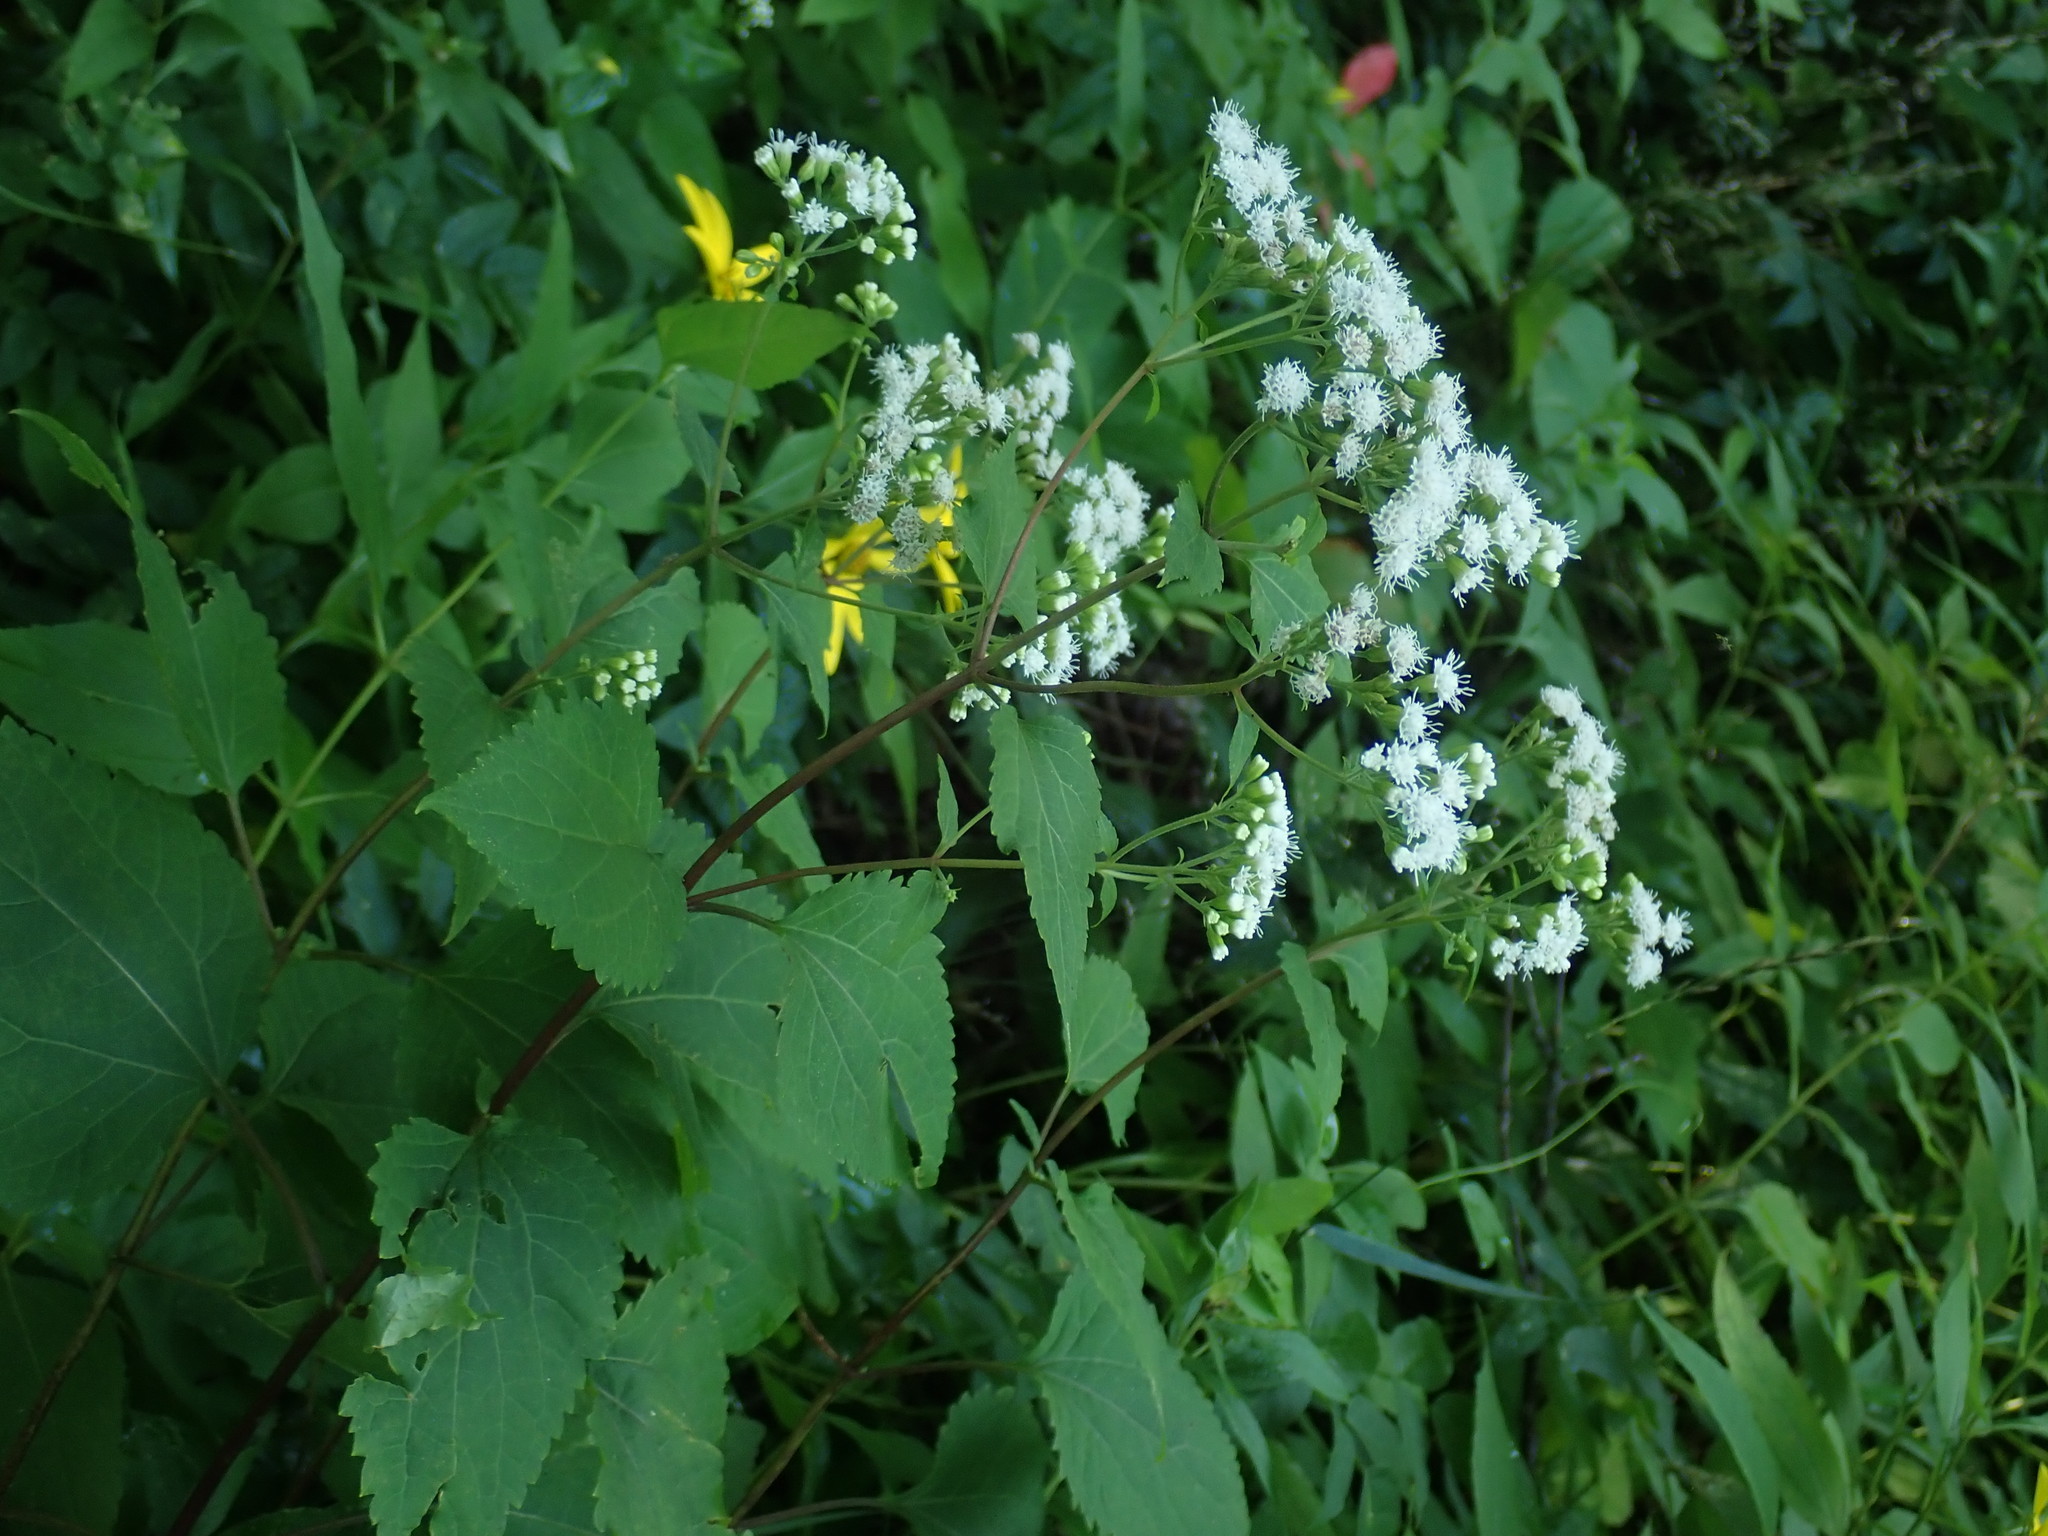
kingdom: Plantae
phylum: Tracheophyta
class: Magnoliopsida
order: Asterales
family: Asteraceae
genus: Ageratina
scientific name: Ageratina altissima
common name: White snakeroot
